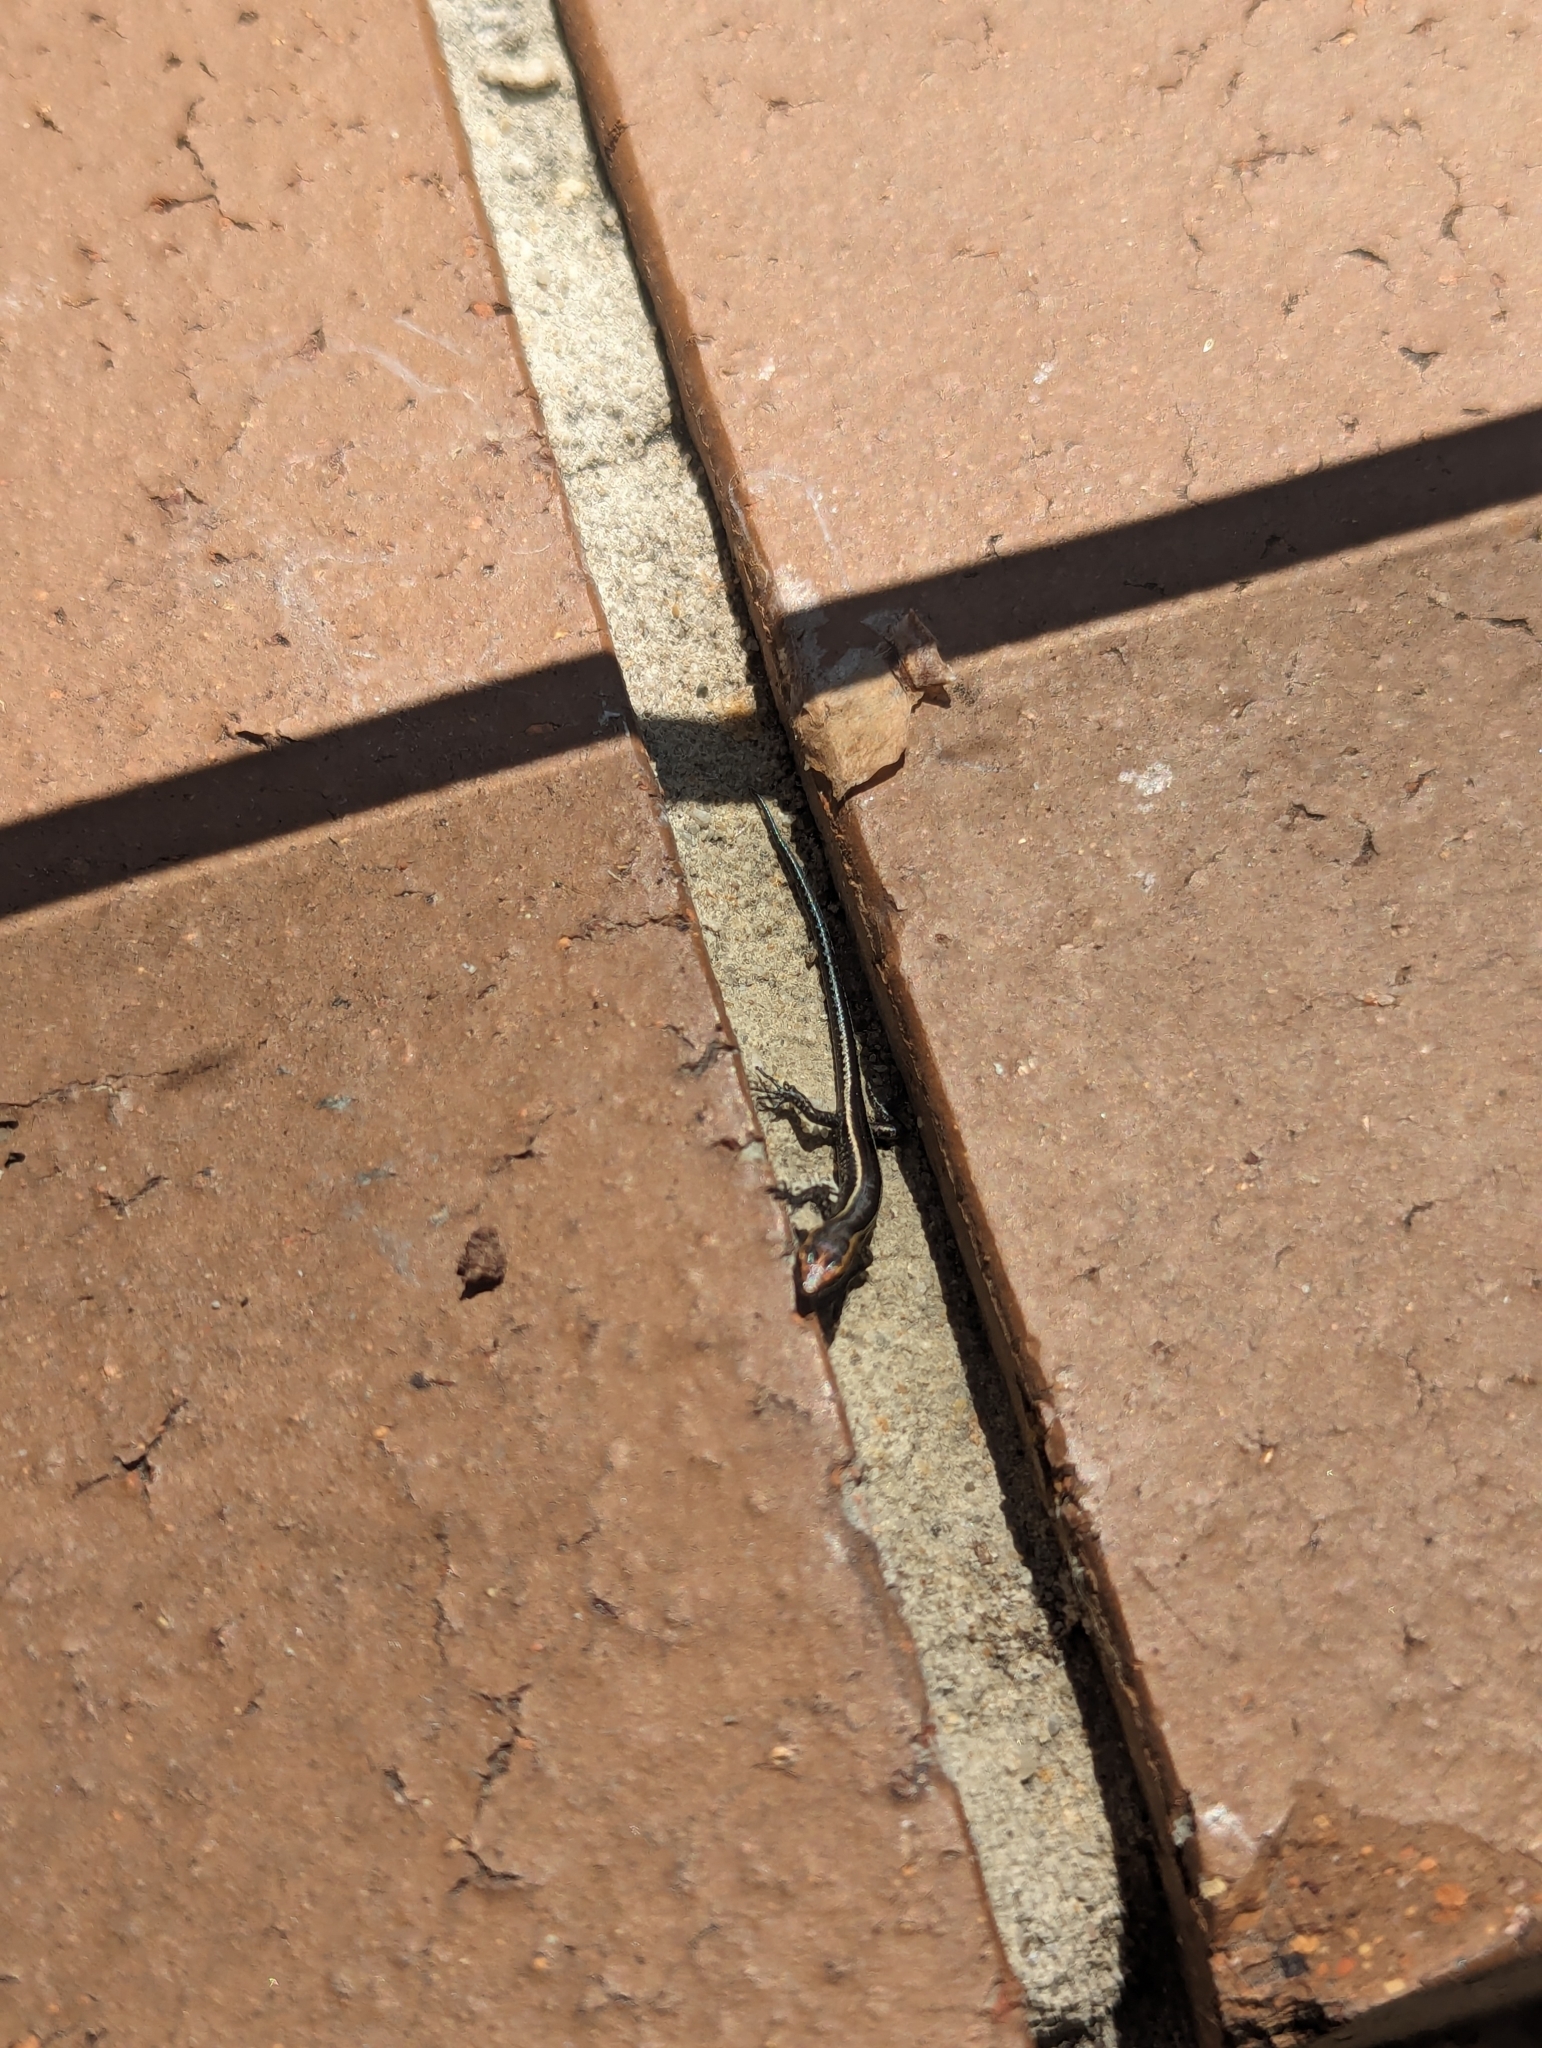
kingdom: Animalia
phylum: Chordata
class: Squamata
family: Scincidae
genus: Cryptoblepharus
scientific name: Cryptoblepharus pulcher
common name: Elegant snake-eyed skink
